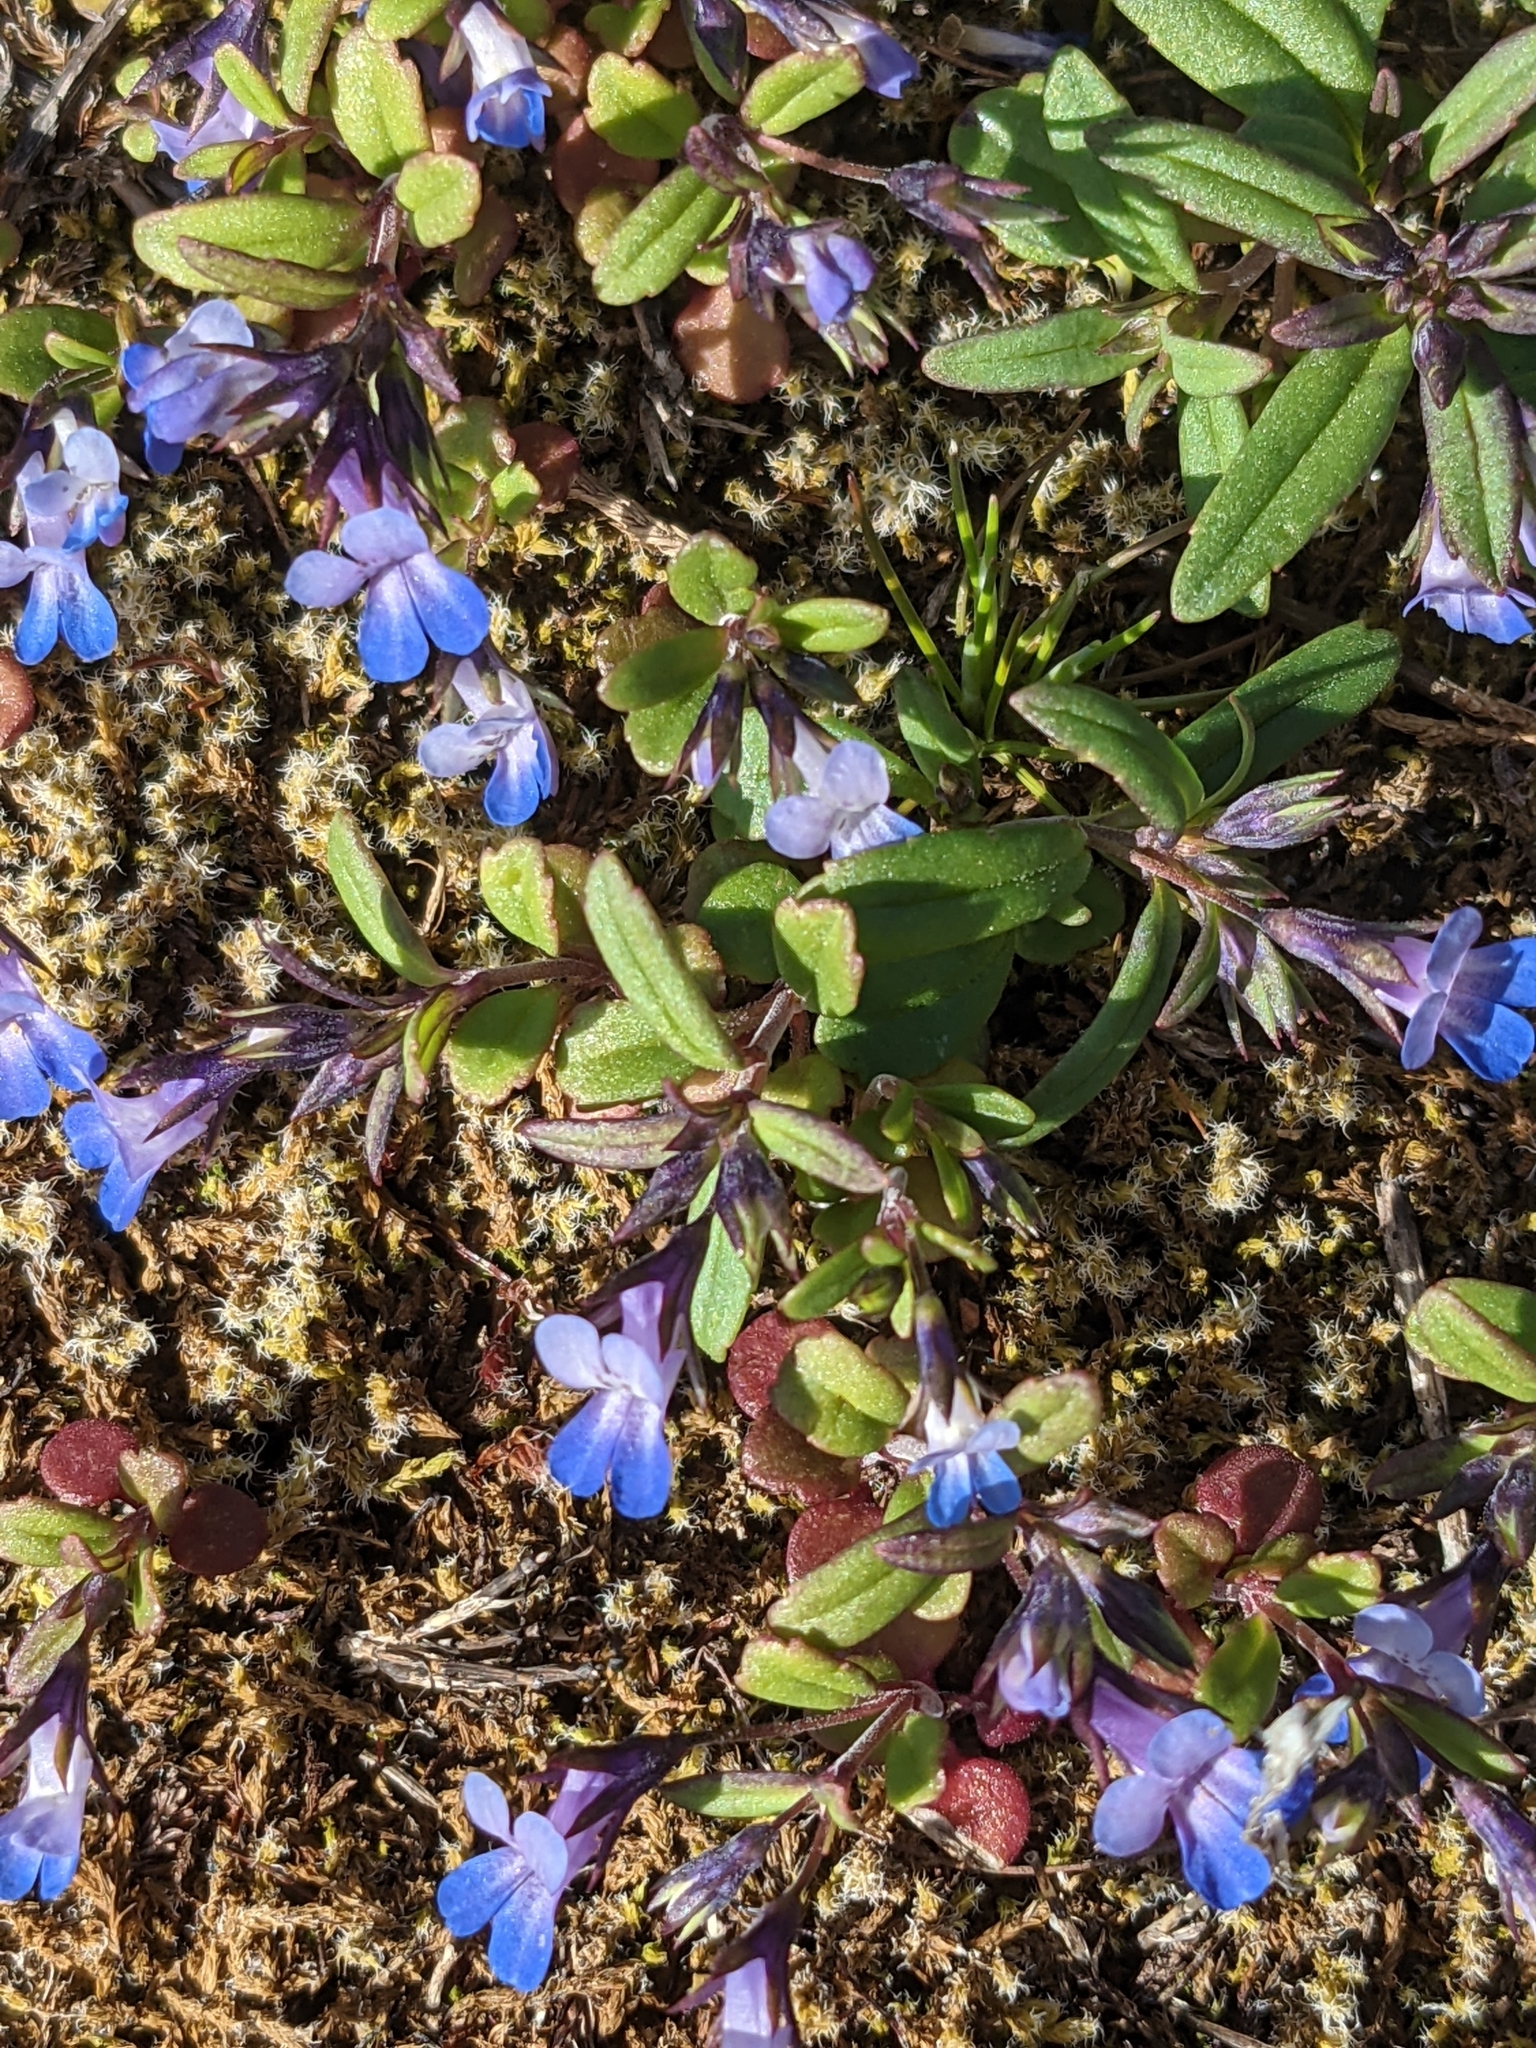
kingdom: Plantae
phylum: Tracheophyta
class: Magnoliopsida
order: Lamiales
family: Plantaginaceae
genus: Collinsia
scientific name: Collinsia parviflora
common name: Blue-lips
